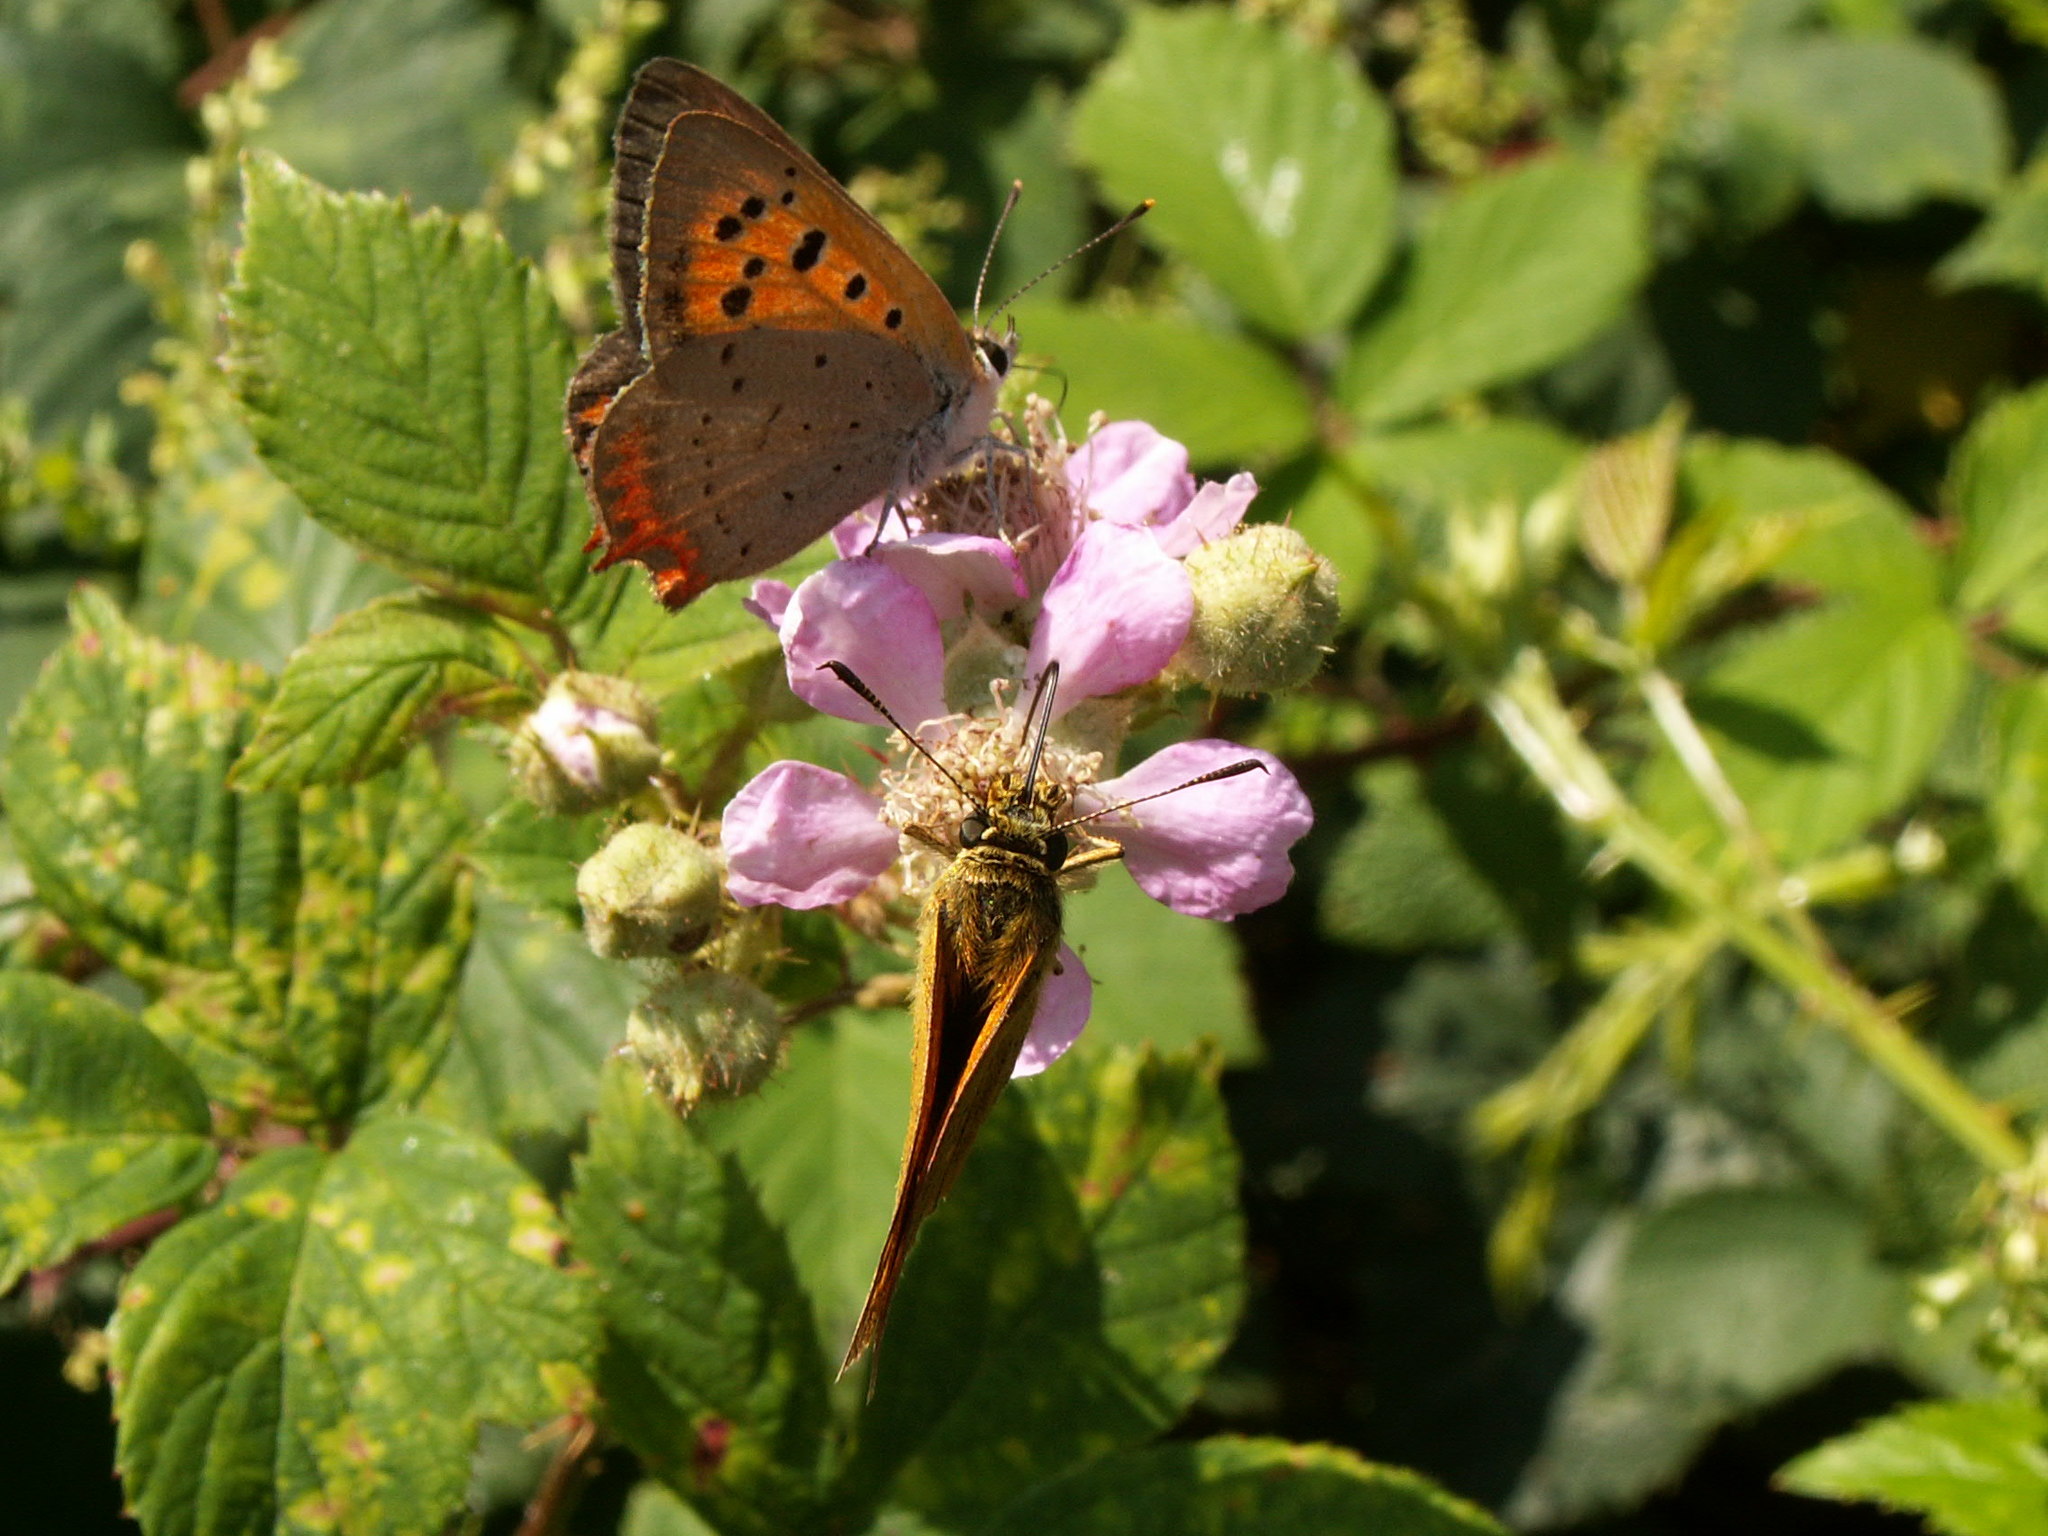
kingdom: Animalia
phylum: Arthropoda
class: Insecta
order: Lepidoptera
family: Lycaenidae
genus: Lycaena
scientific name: Lycaena phlaeas
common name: Small copper
